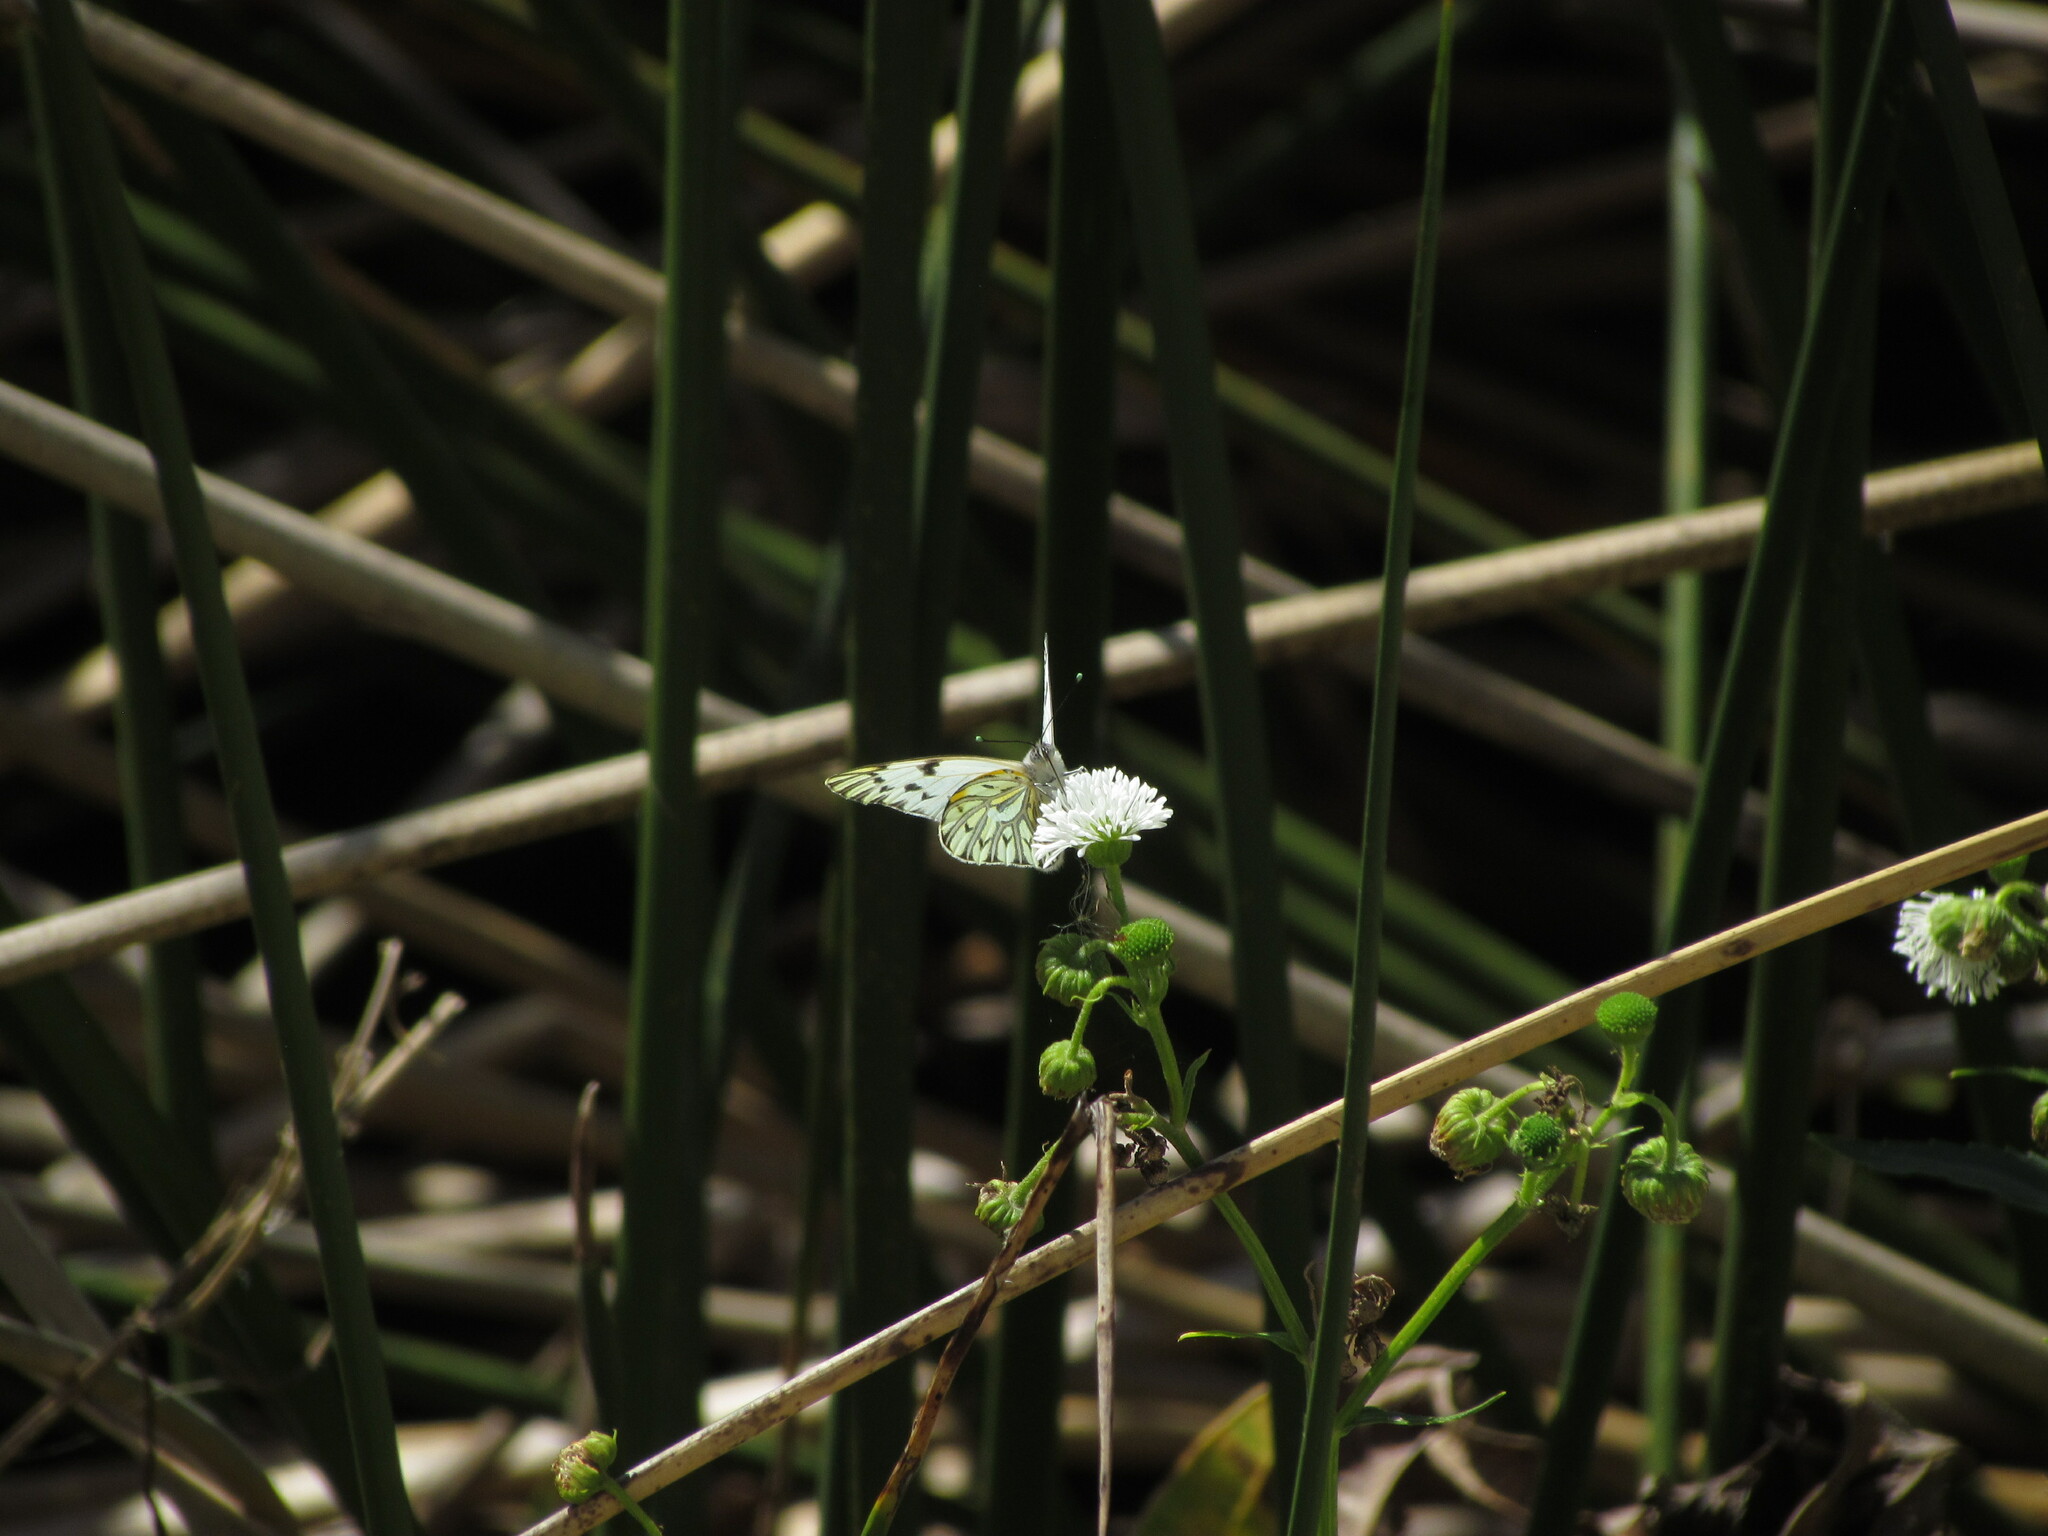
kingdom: Animalia
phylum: Arthropoda
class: Insecta
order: Lepidoptera
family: Pieridae
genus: Tatochila
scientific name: Tatochila autodice
